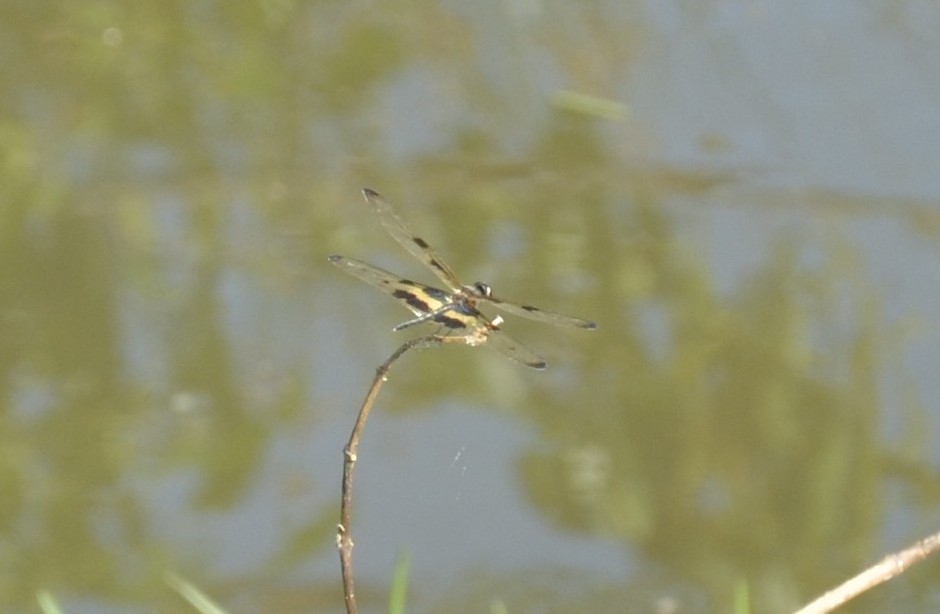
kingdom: Animalia
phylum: Arthropoda
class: Insecta
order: Odonata
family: Libellulidae
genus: Rhyothemis
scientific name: Rhyothemis variegata
